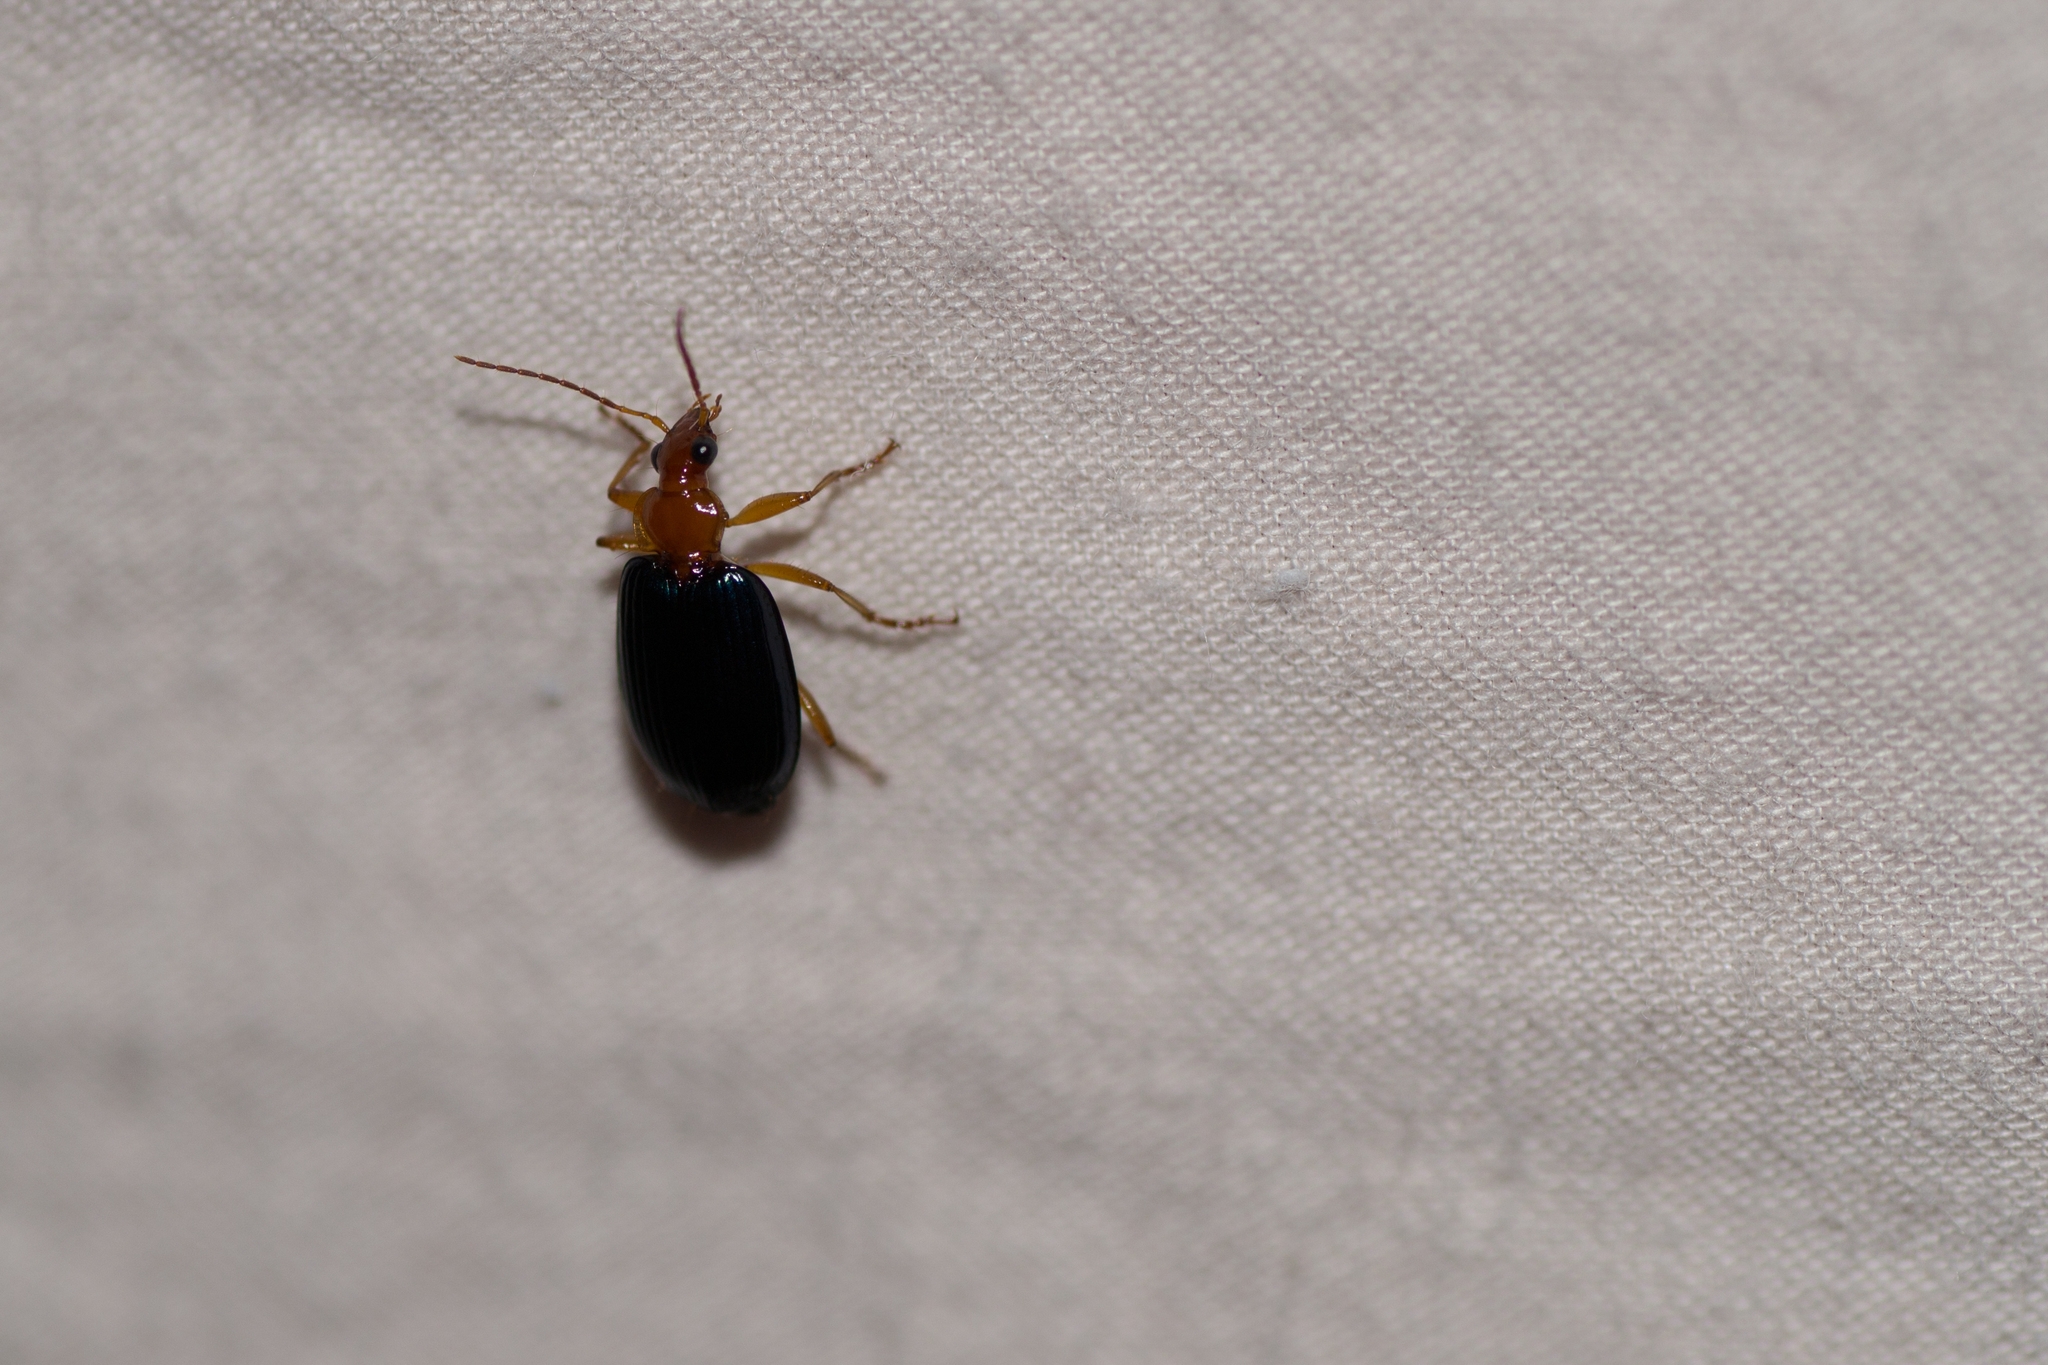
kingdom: Animalia
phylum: Arthropoda
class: Insecta
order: Coleoptera
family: Carabidae
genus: Lebia
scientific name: Lebia grandis
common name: Large foliage ground beetle
